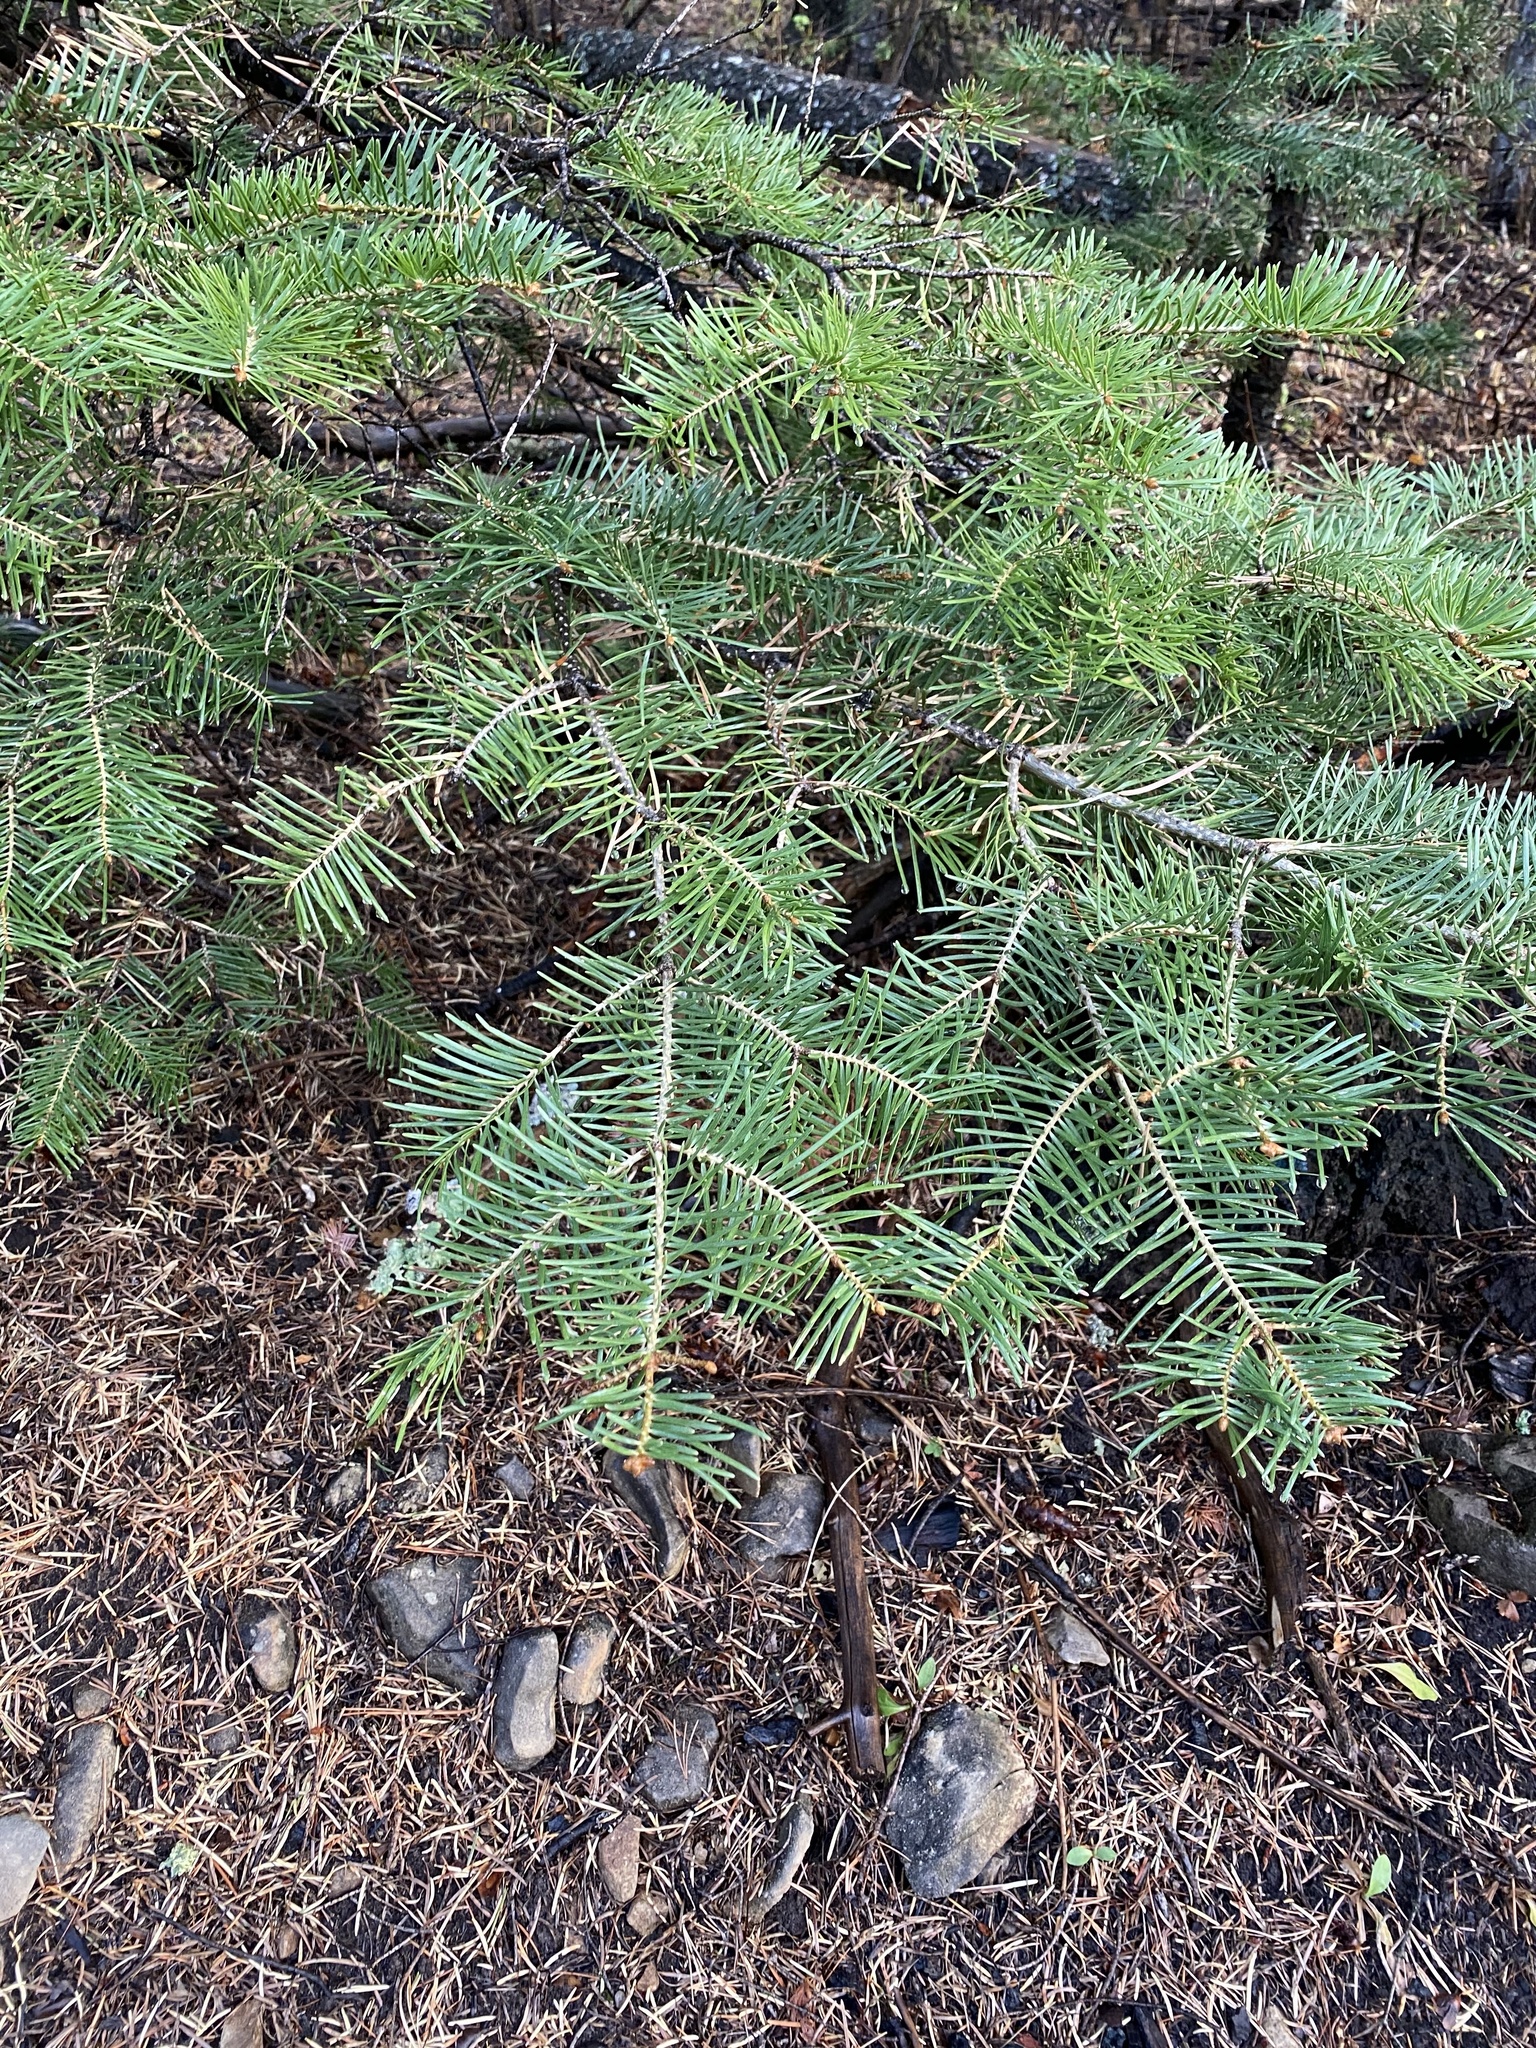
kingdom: Plantae
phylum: Tracheophyta
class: Pinopsida
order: Pinales
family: Pinaceae
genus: Abies
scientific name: Abies concolor
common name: Colorado fir
